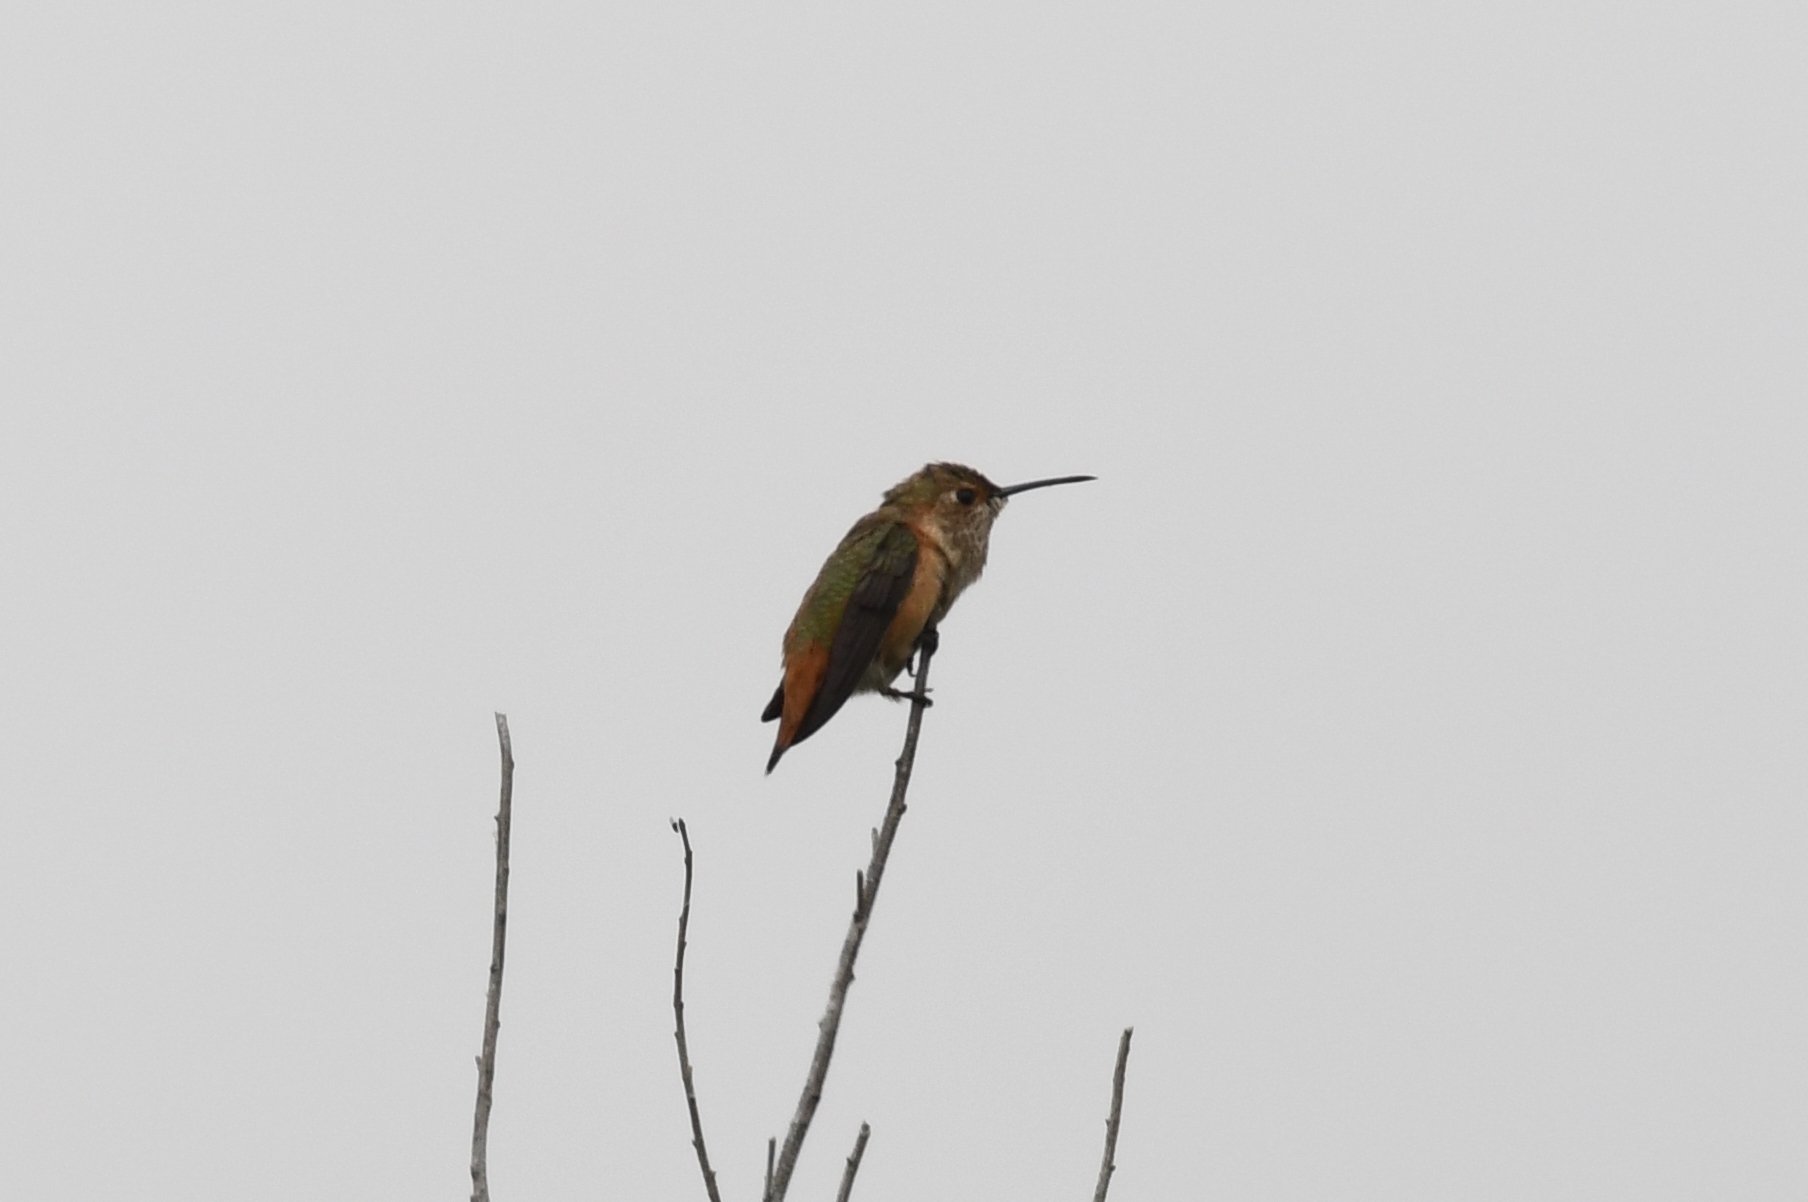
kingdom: Animalia
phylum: Chordata
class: Aves
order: Apodiformes
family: Trochilidae
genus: Selasphorus
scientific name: Selasphorus sasin
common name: Allen's hummingbird
